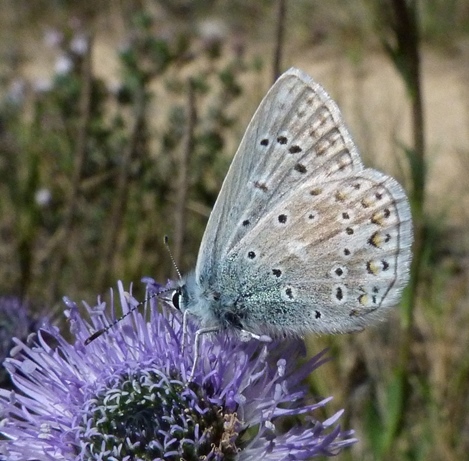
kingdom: Animalia
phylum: Arthropoda
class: Insecta
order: Lepidoptera
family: Lycaenidae
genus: Polyommatus
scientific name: Polyommatus icarus
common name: Common blue
